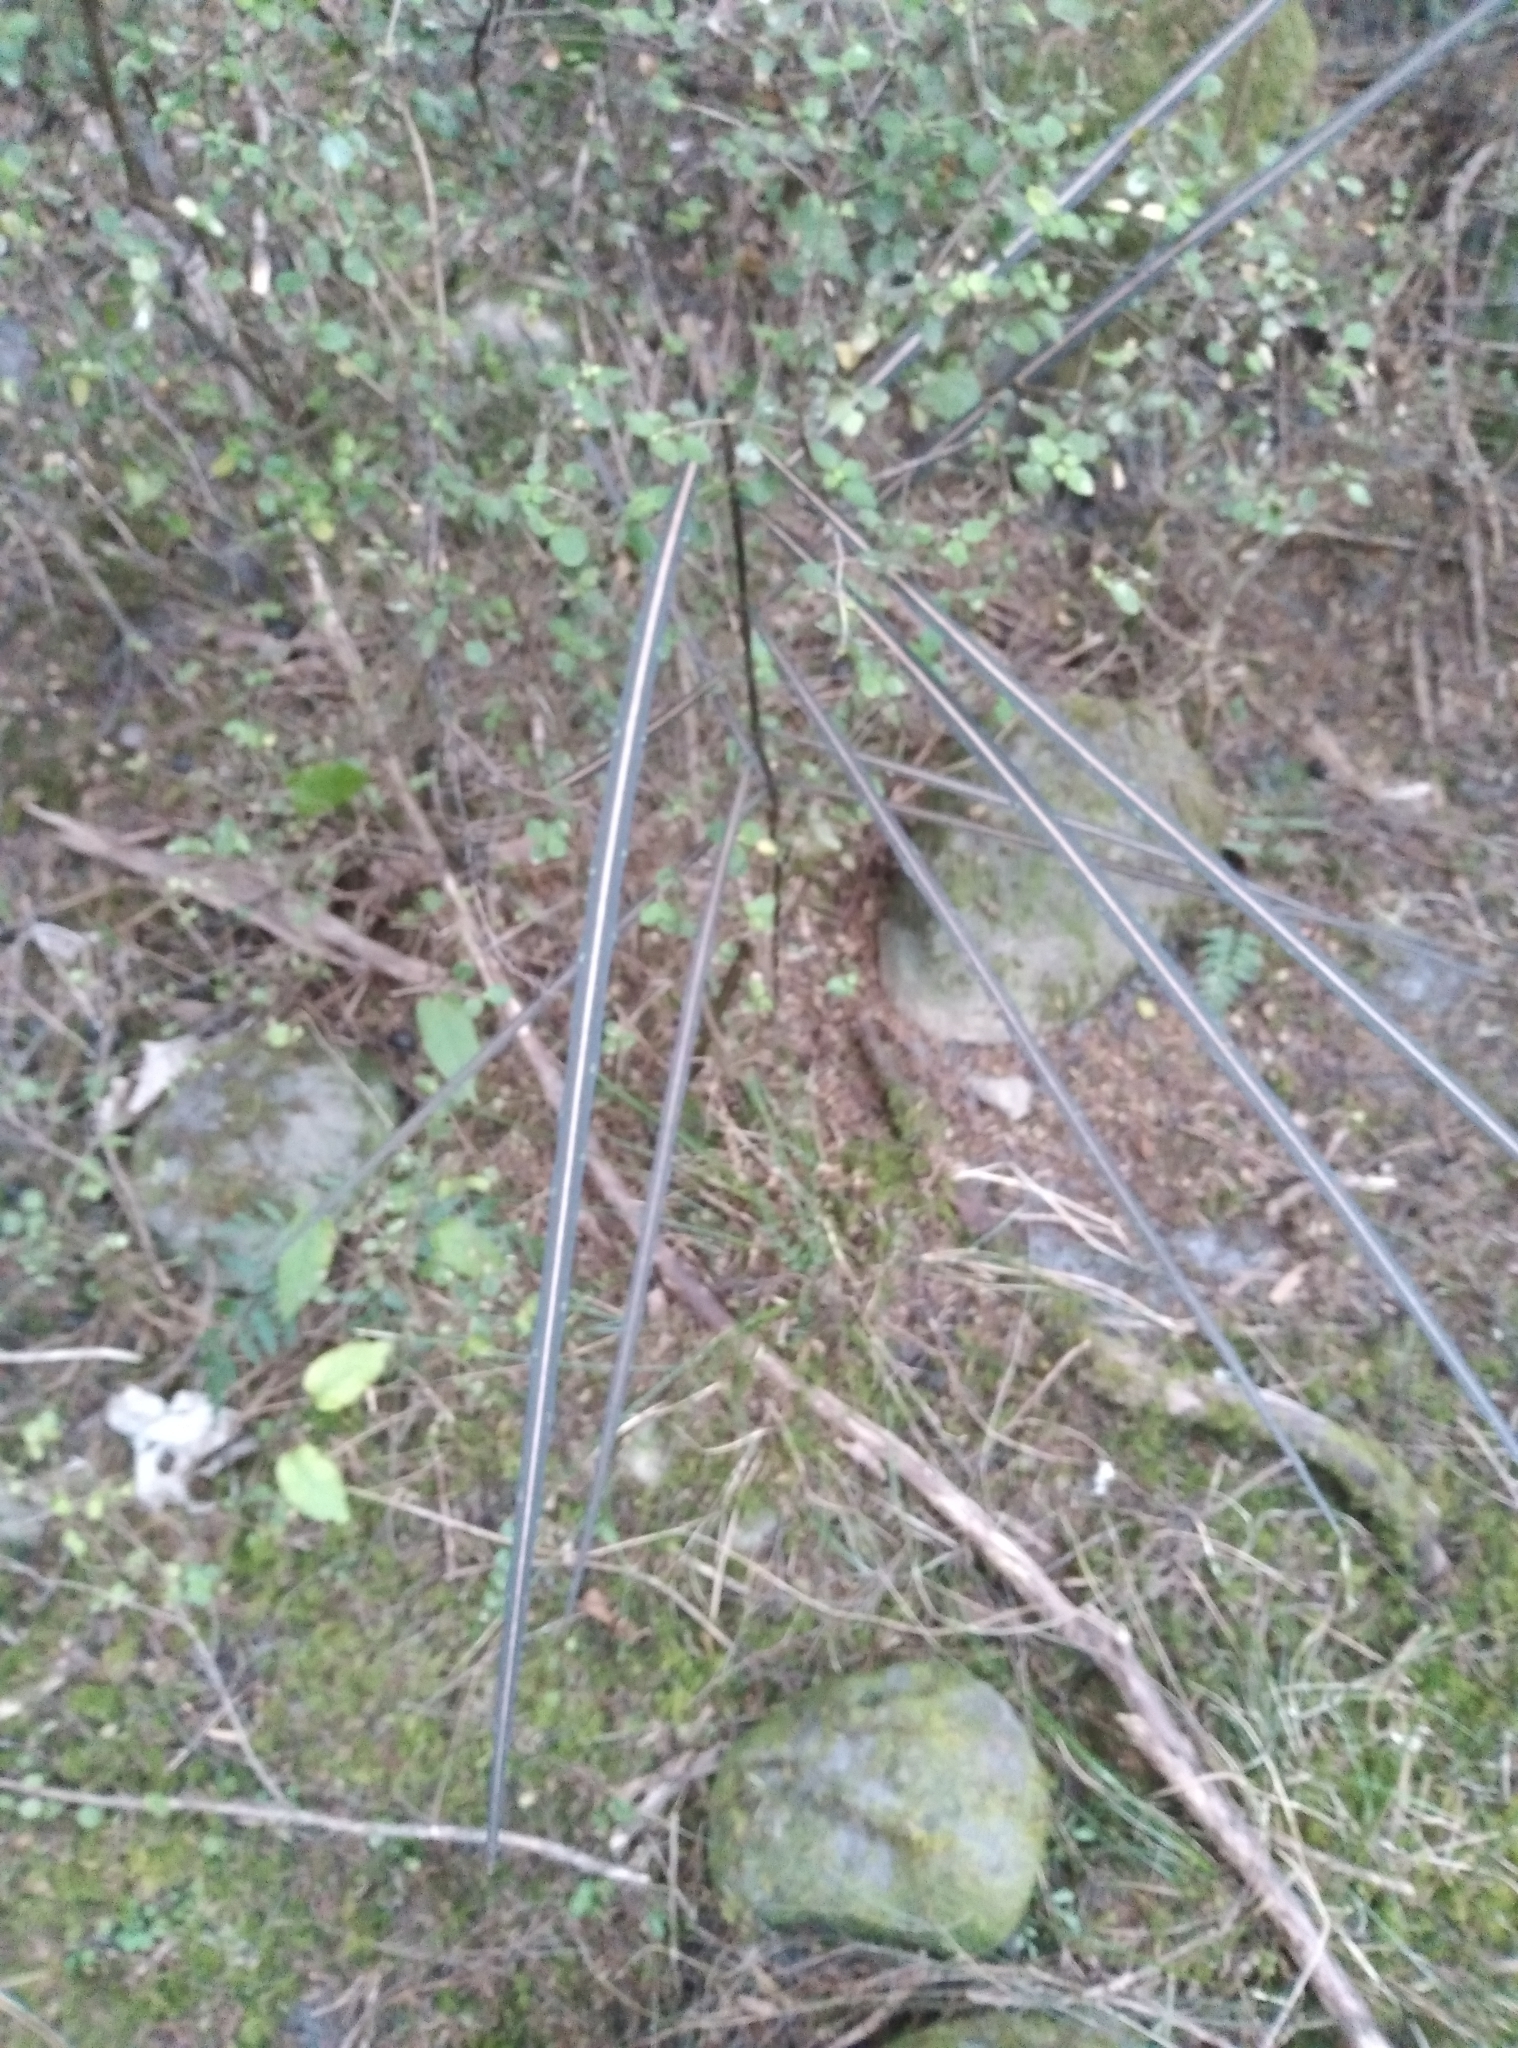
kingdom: Plantae
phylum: Tracheophyta
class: Magnoliopsida
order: Apiales
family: Araliaceae
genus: Pseudopanax
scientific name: Pseudopanax crassifolius
